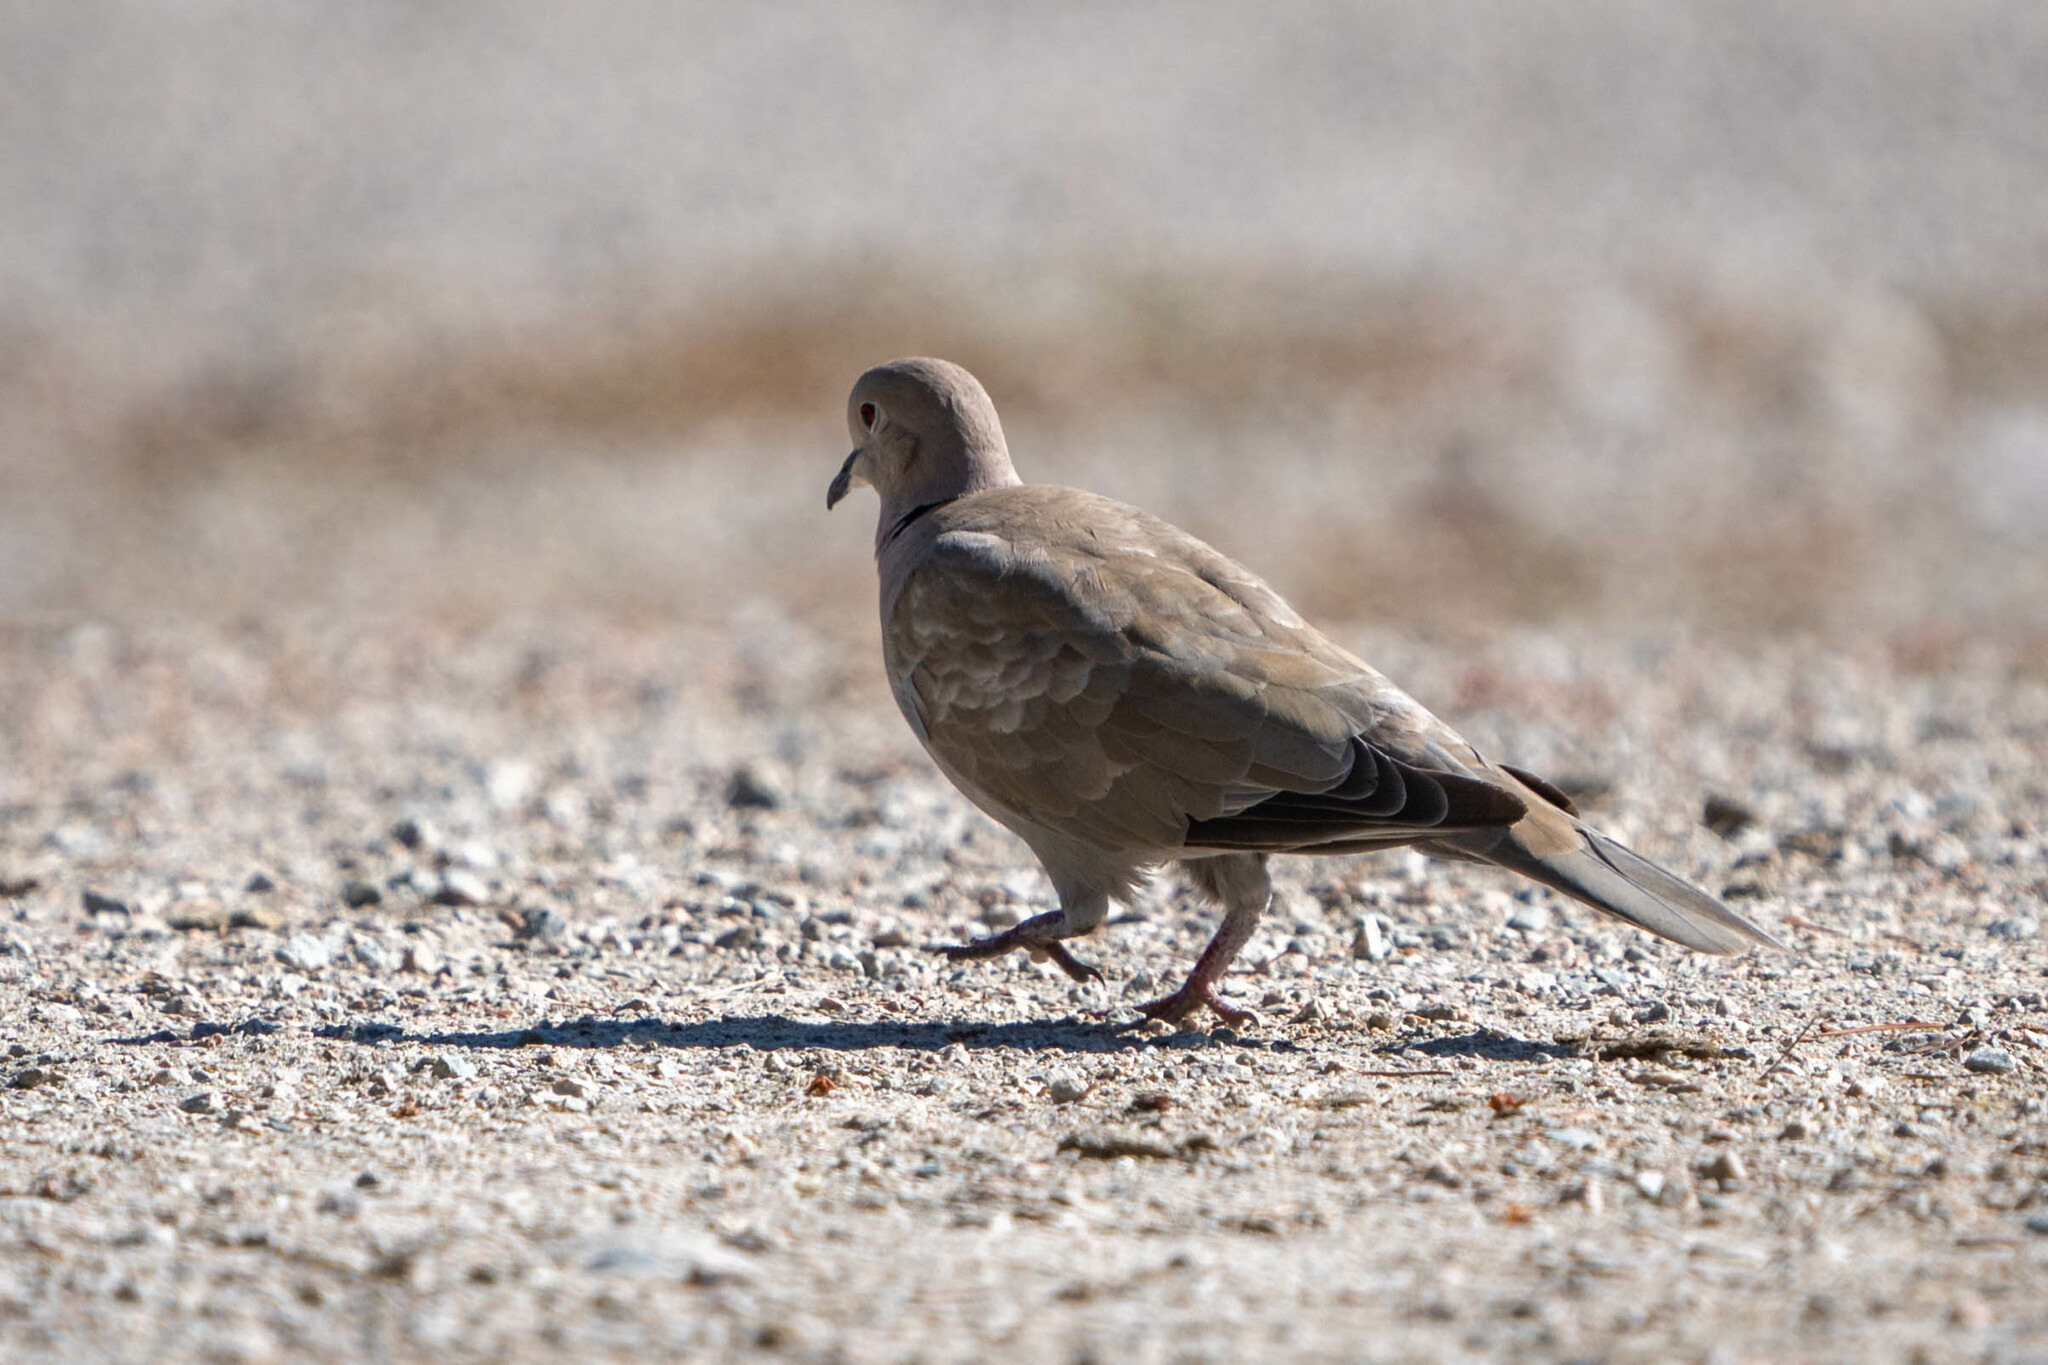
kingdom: Animalia
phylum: Chordata
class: Aves
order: Columbiformes
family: Columbidae
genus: Streptopelia
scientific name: Streptopelia decaocto
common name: Eurasian collared dove
